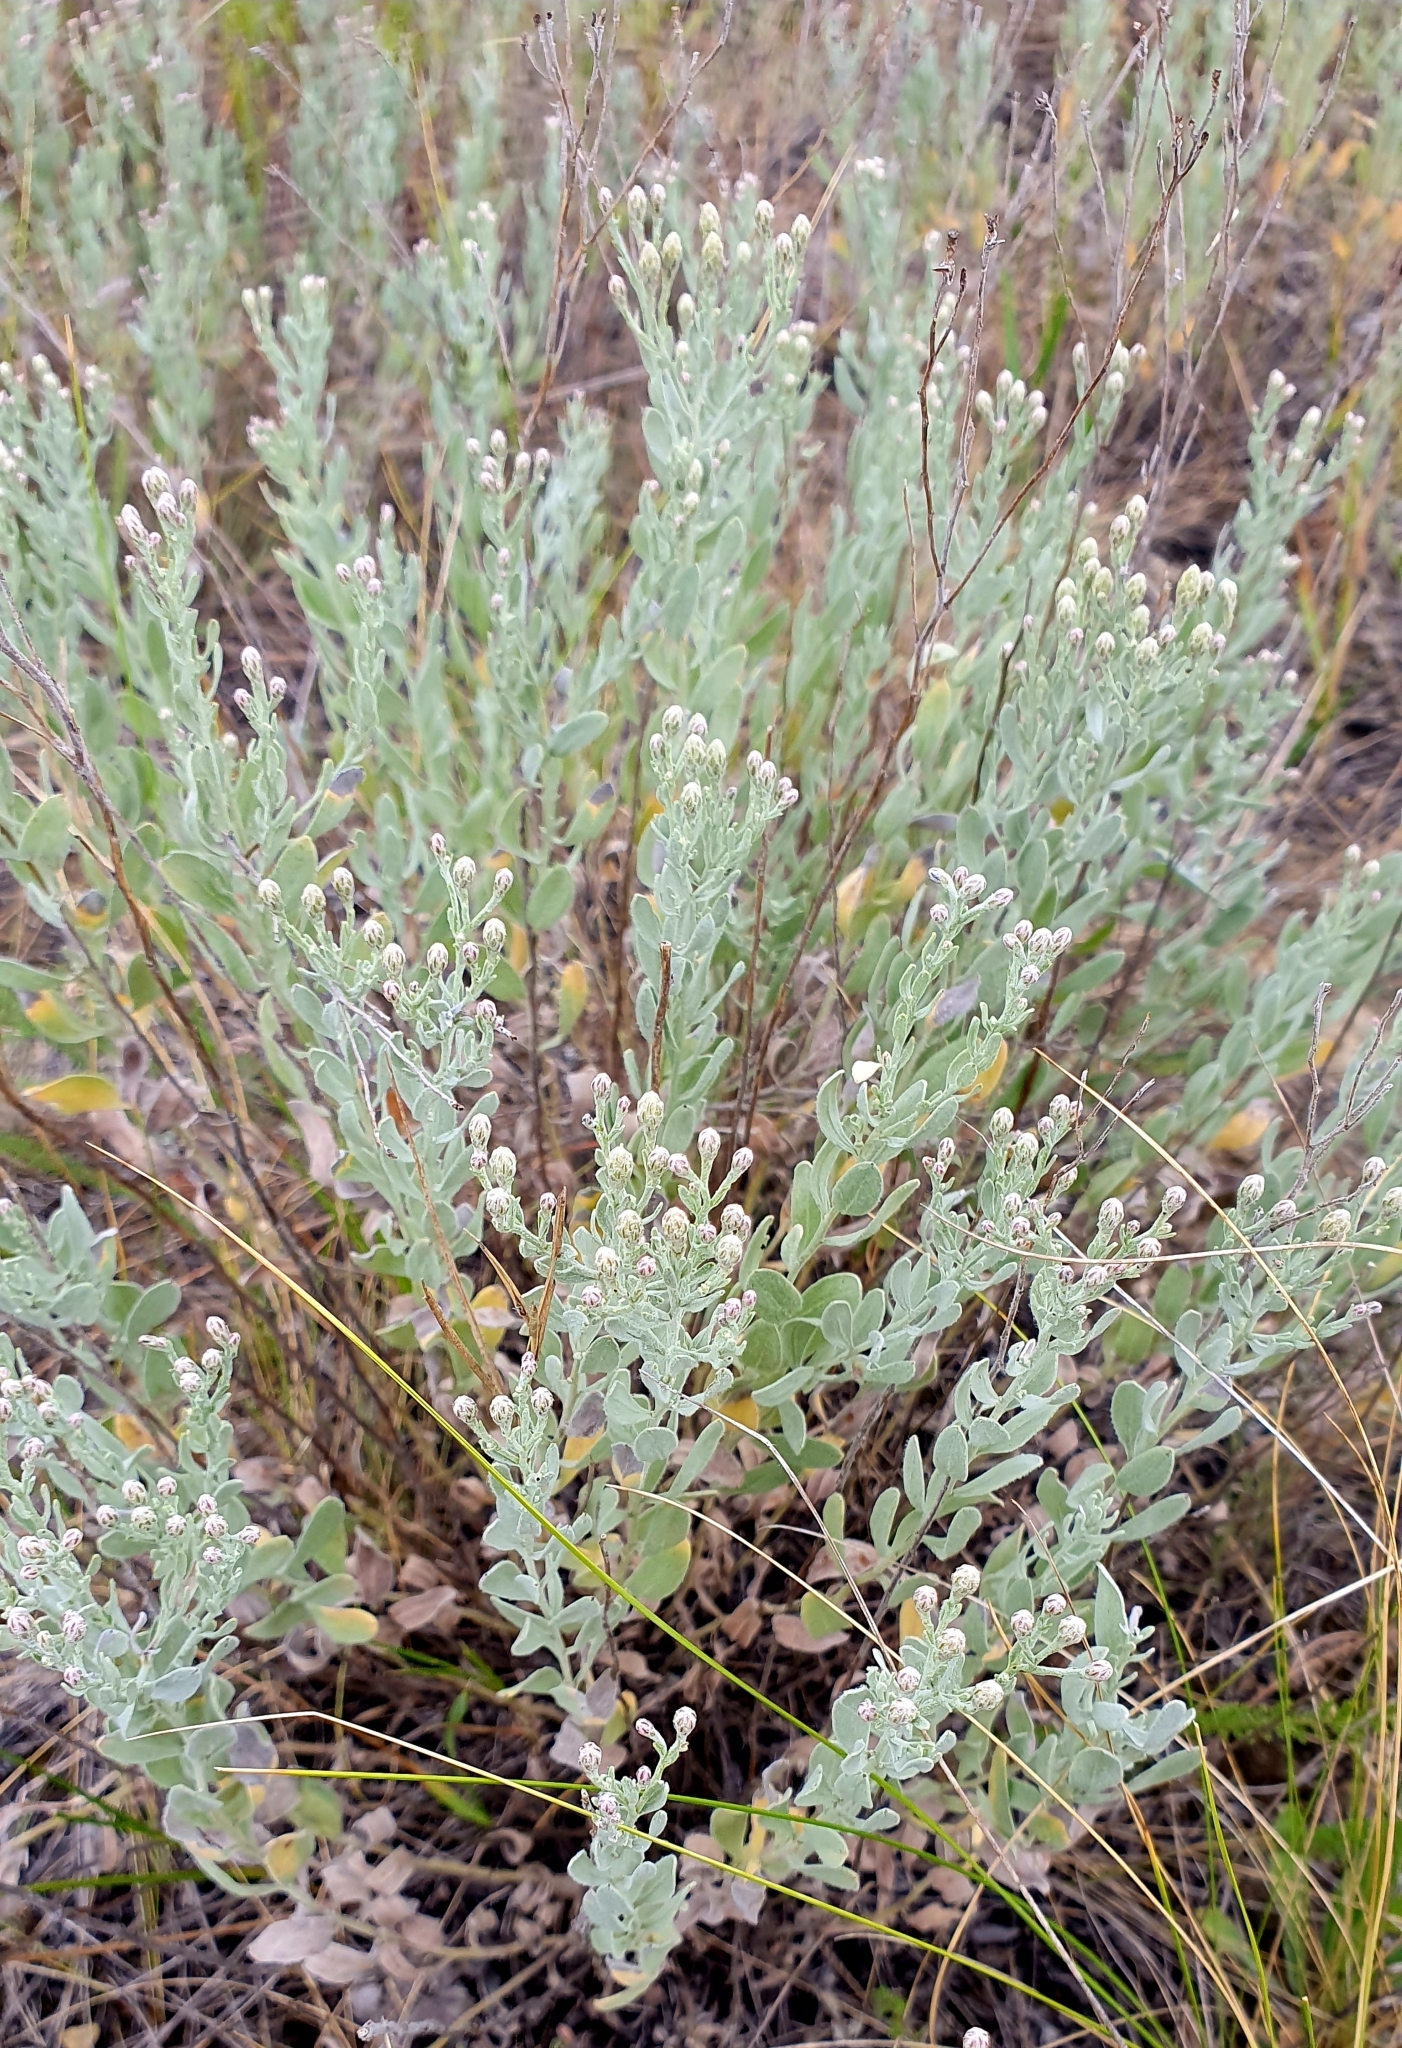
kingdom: Plantae
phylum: Tracheophyta
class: Magnoliopsida
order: Asterales
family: Asteraceae
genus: Galatella
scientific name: Galatella villosa
